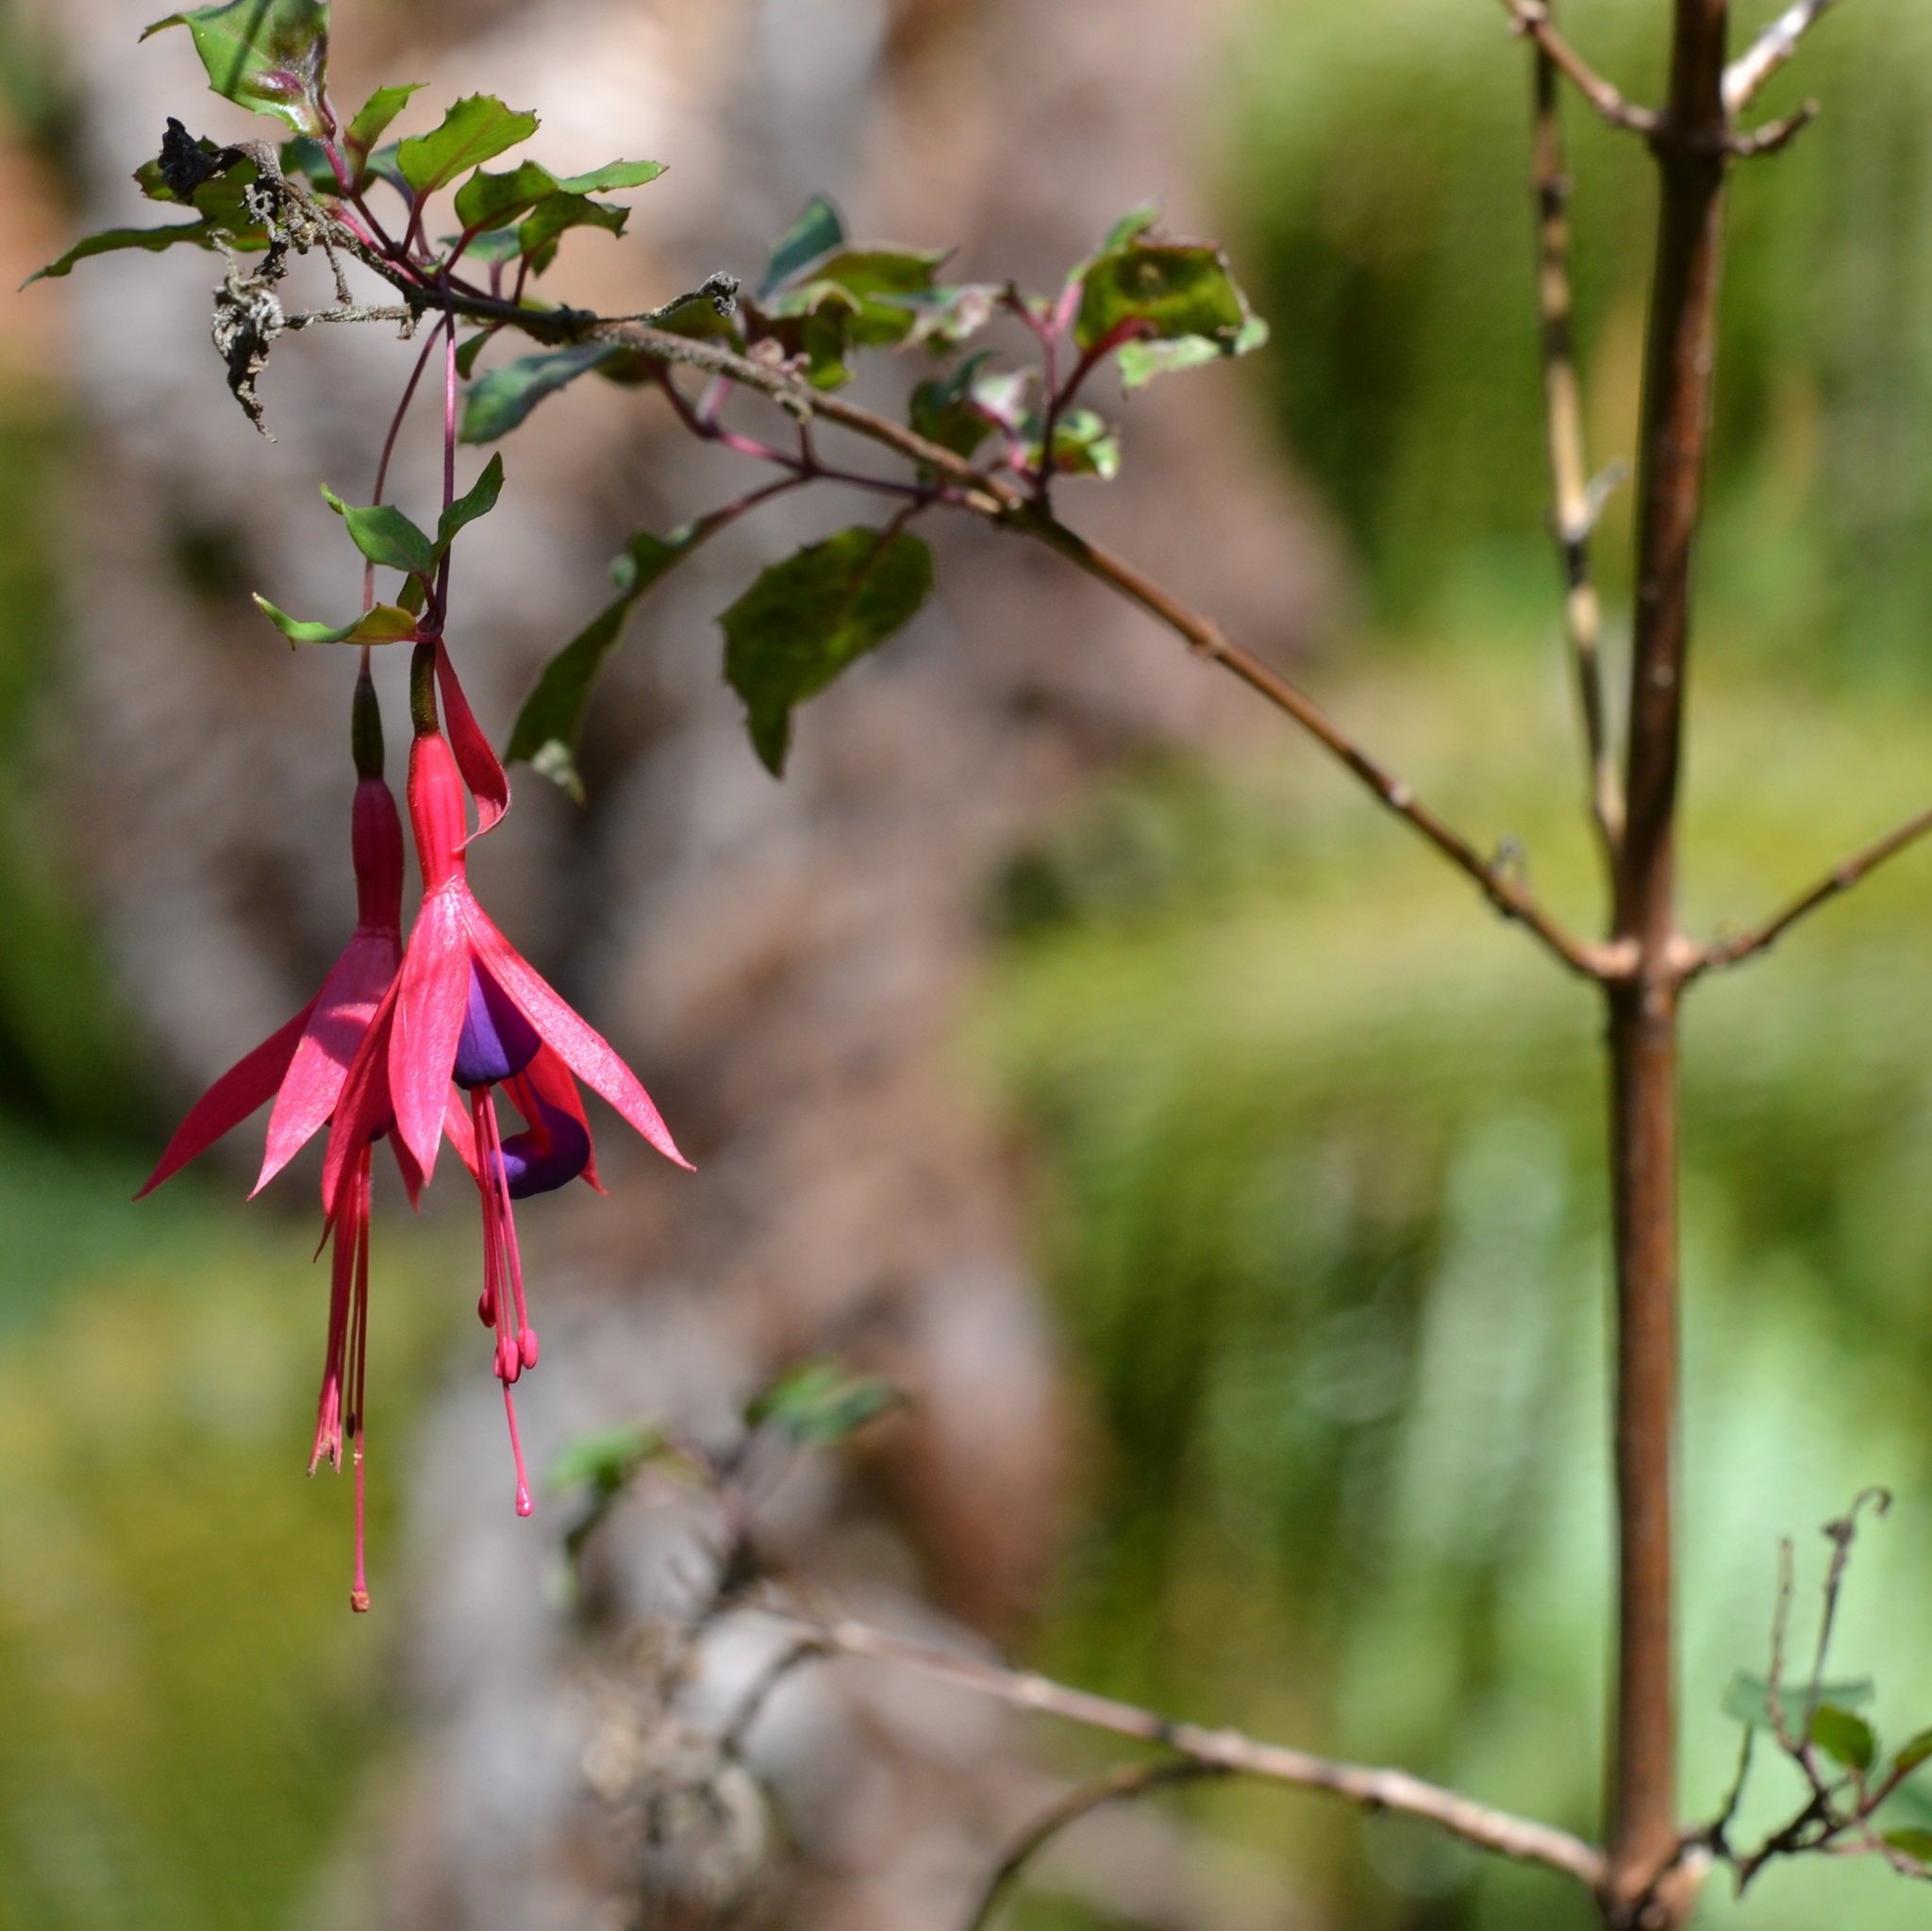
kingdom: Plantae
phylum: Tracheophyta
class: Magnoliopsida
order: Myrtales
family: Onagraceae
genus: Fuchsia
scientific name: Fuchsia magellanica
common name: Hardy fuchsia
